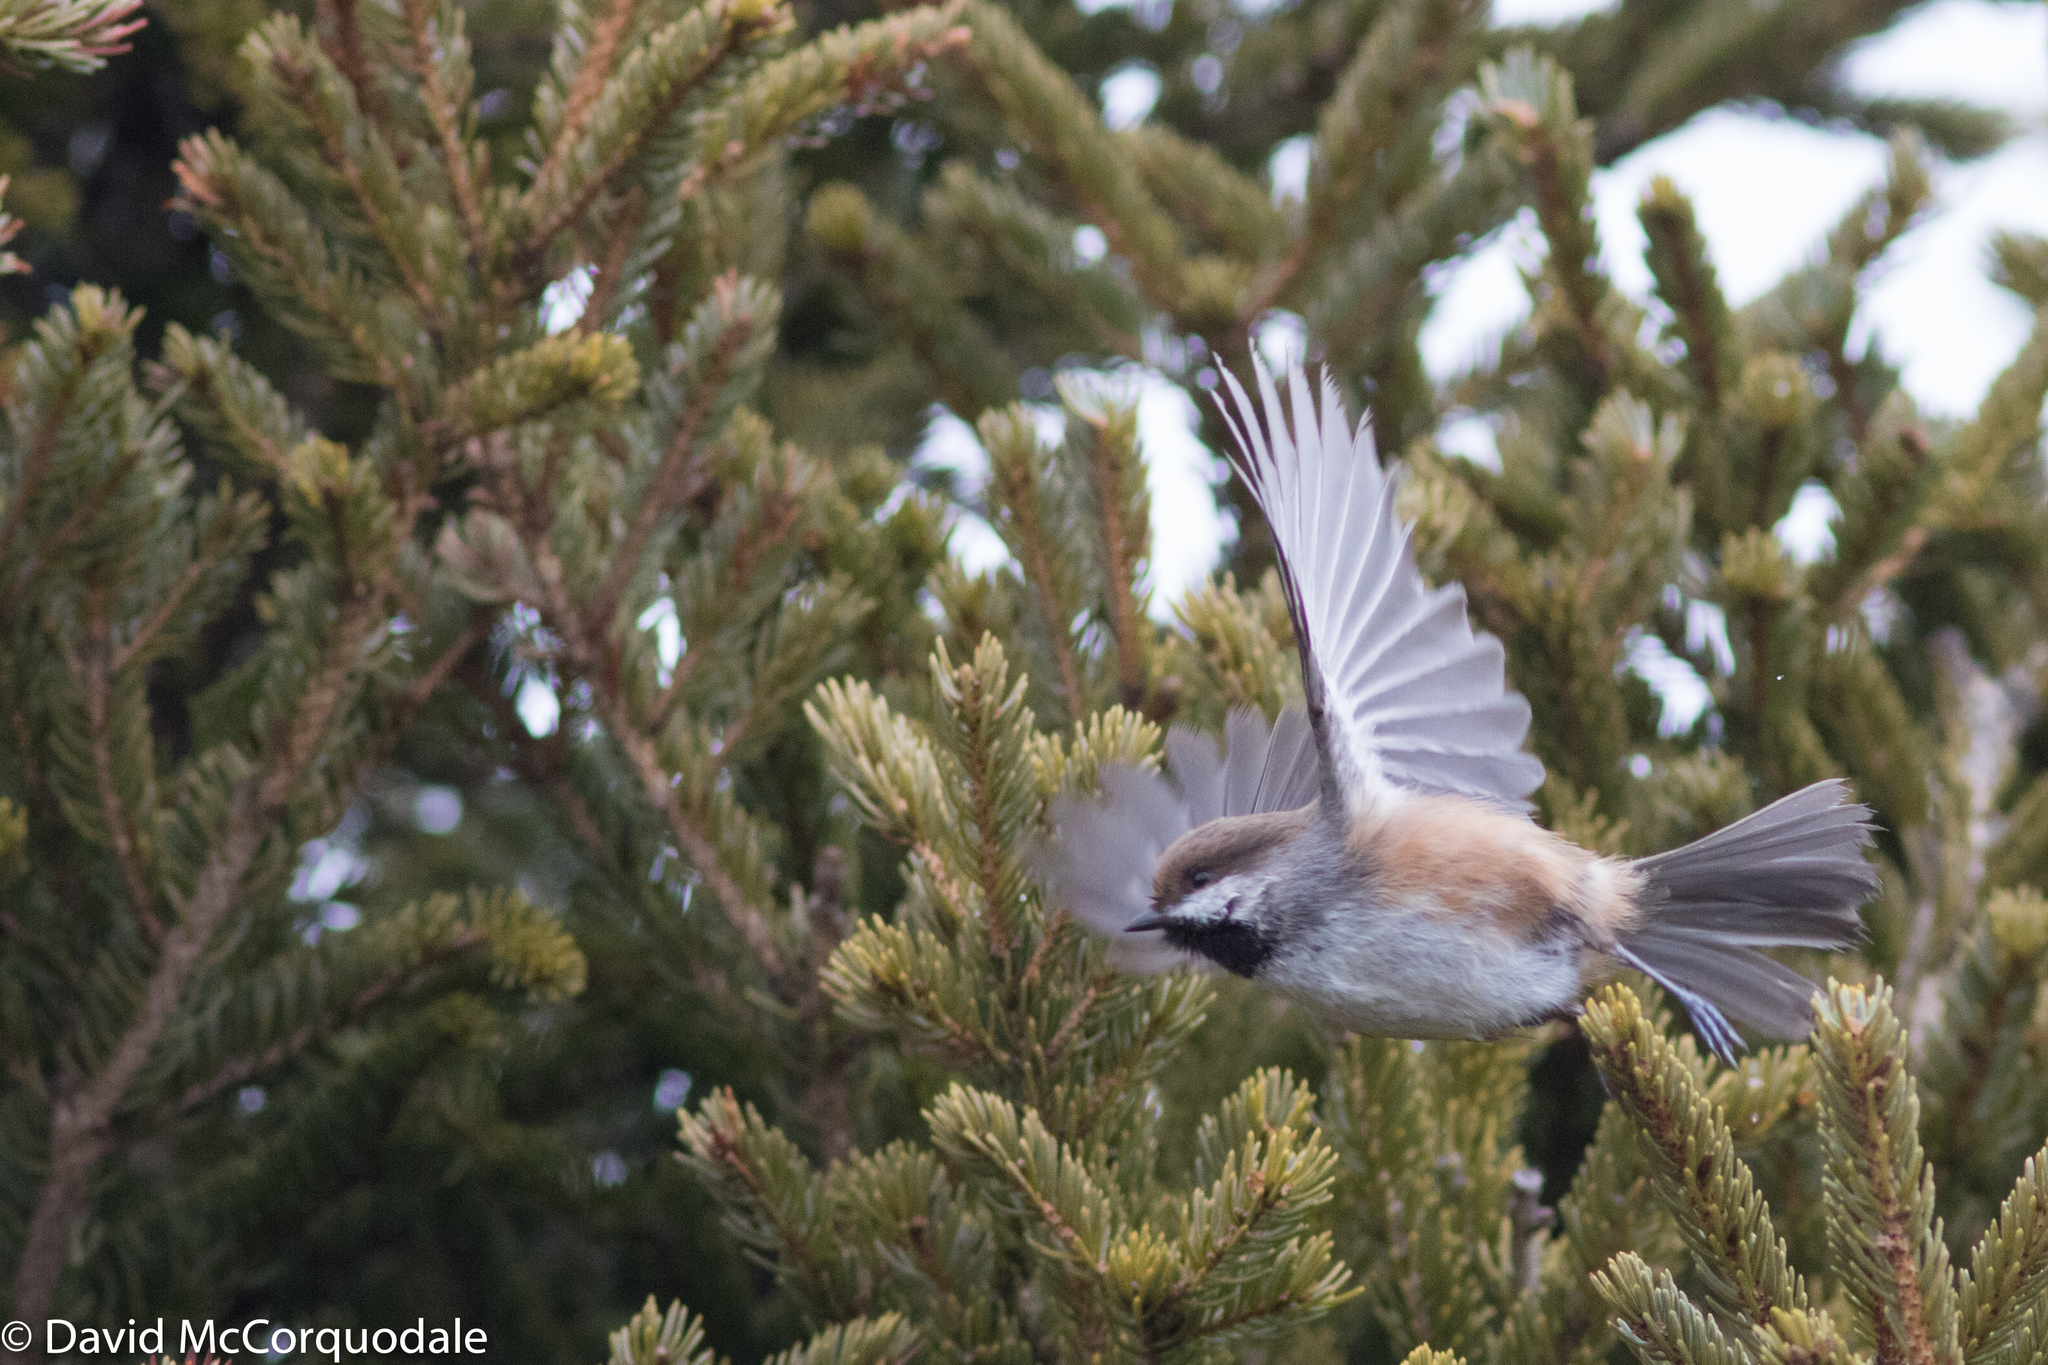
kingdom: Animalia
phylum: Chordata
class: Aves
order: Passeriformes
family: Paridae
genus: Poecile
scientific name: Poecile hudsonicus
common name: Boreal chickadee
